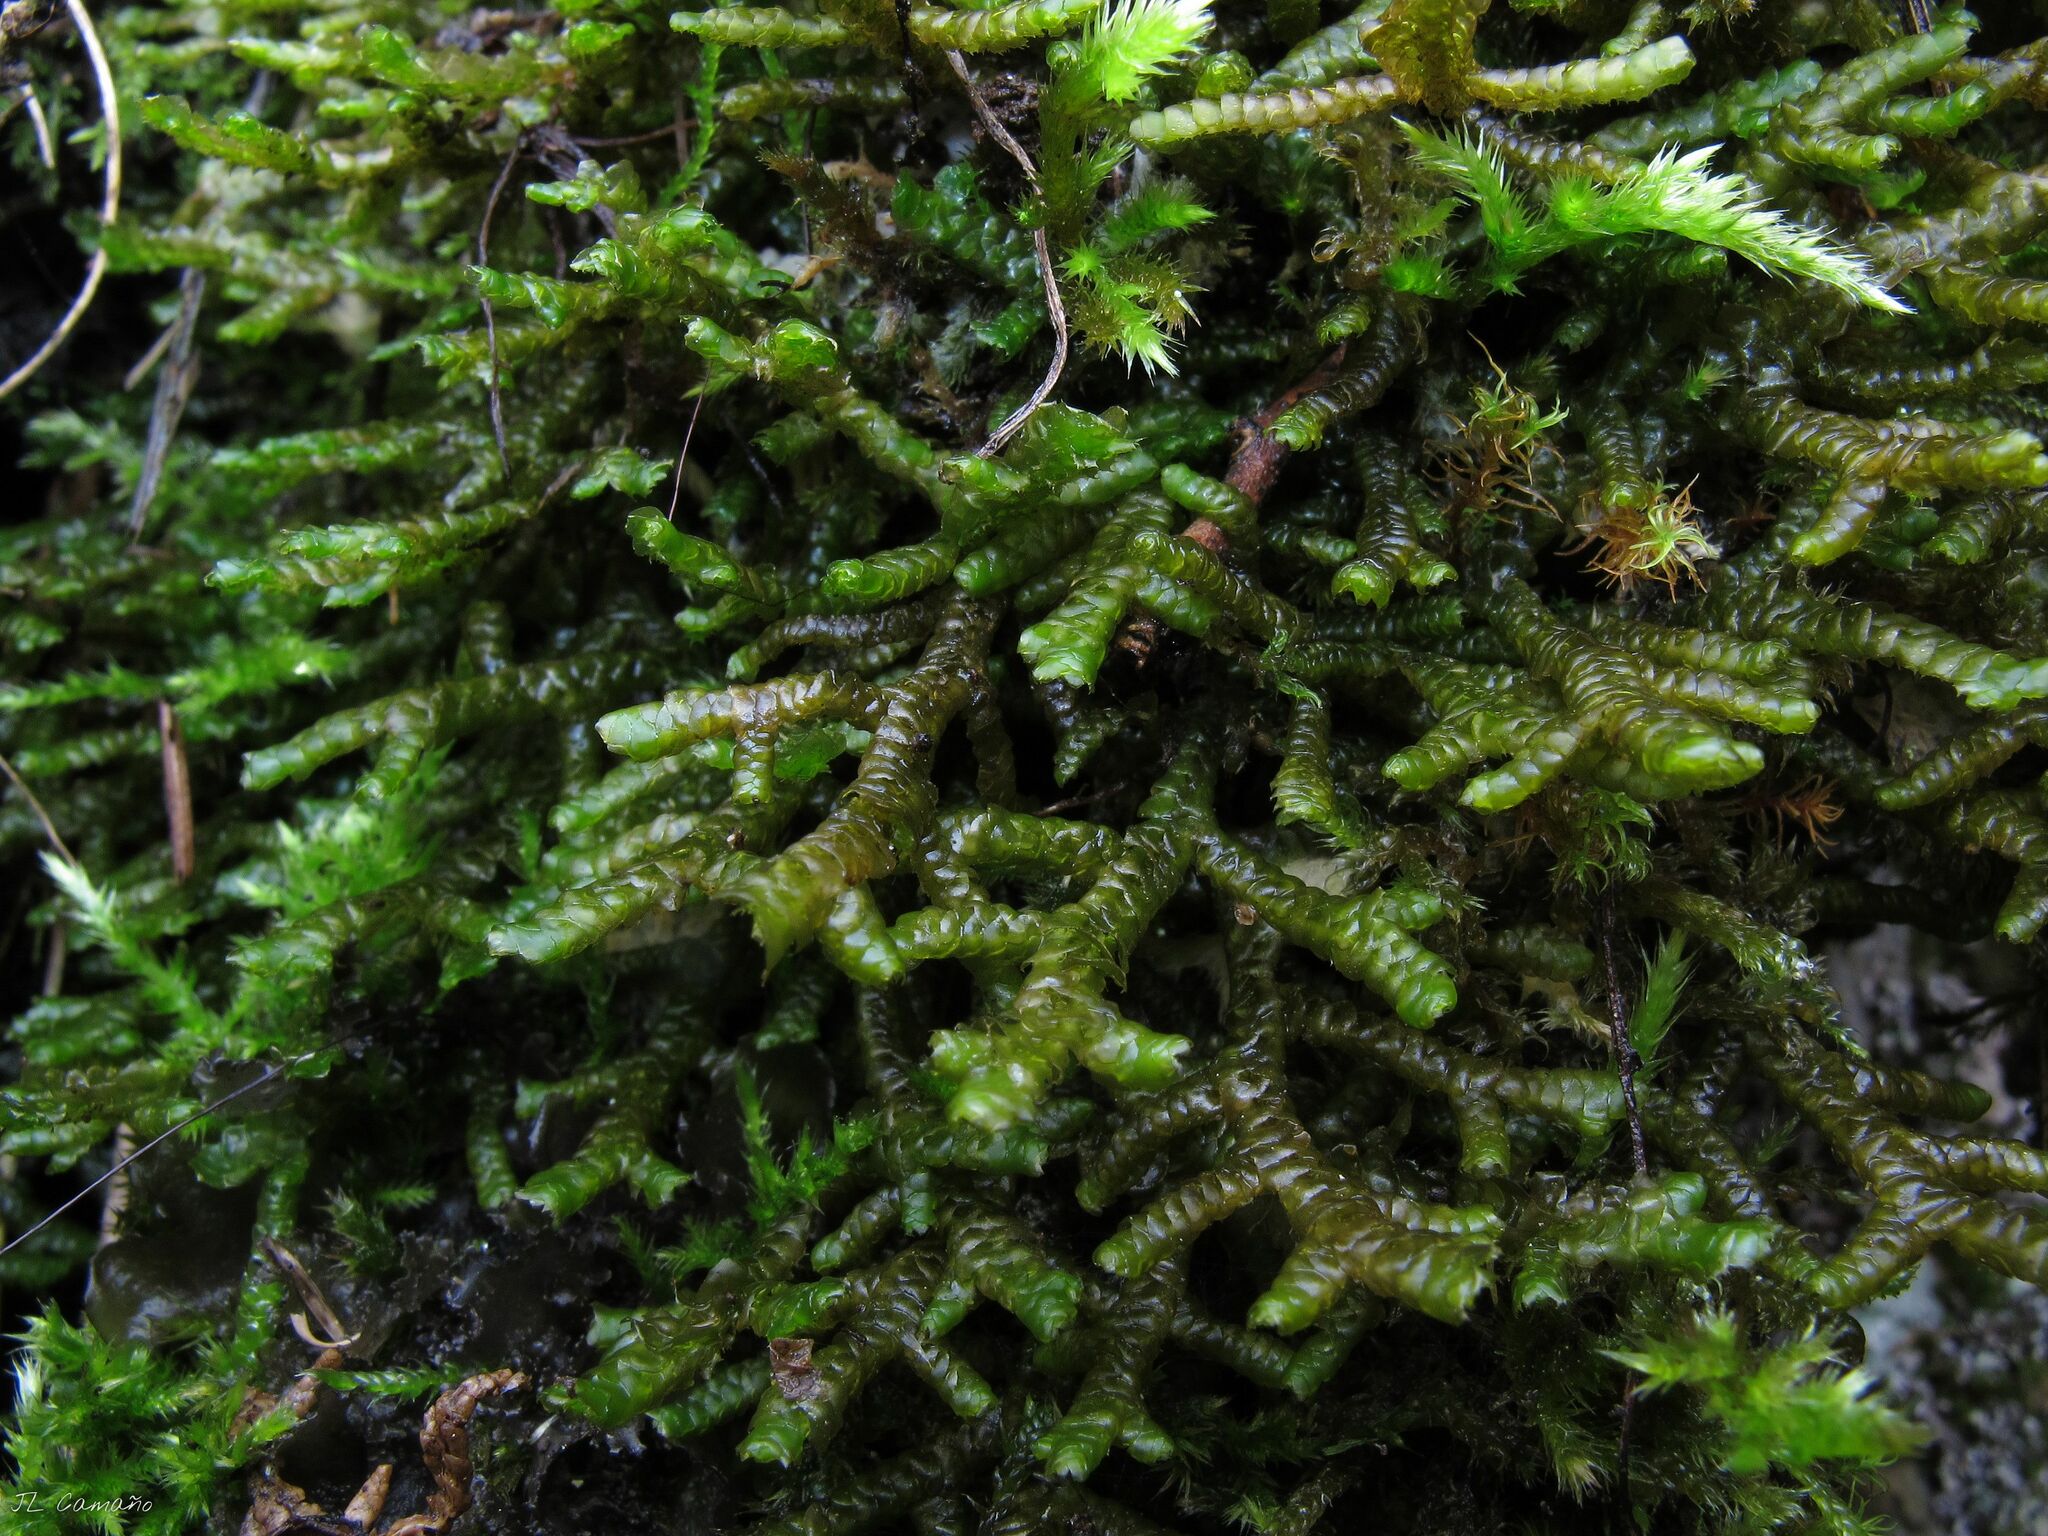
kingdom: Plantae
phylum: Marchantiophyta
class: Jungermanniopsida
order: Porellales
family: Porellaceae
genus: Porella
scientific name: Porella arboris-vitae
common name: Bitter scalewort
